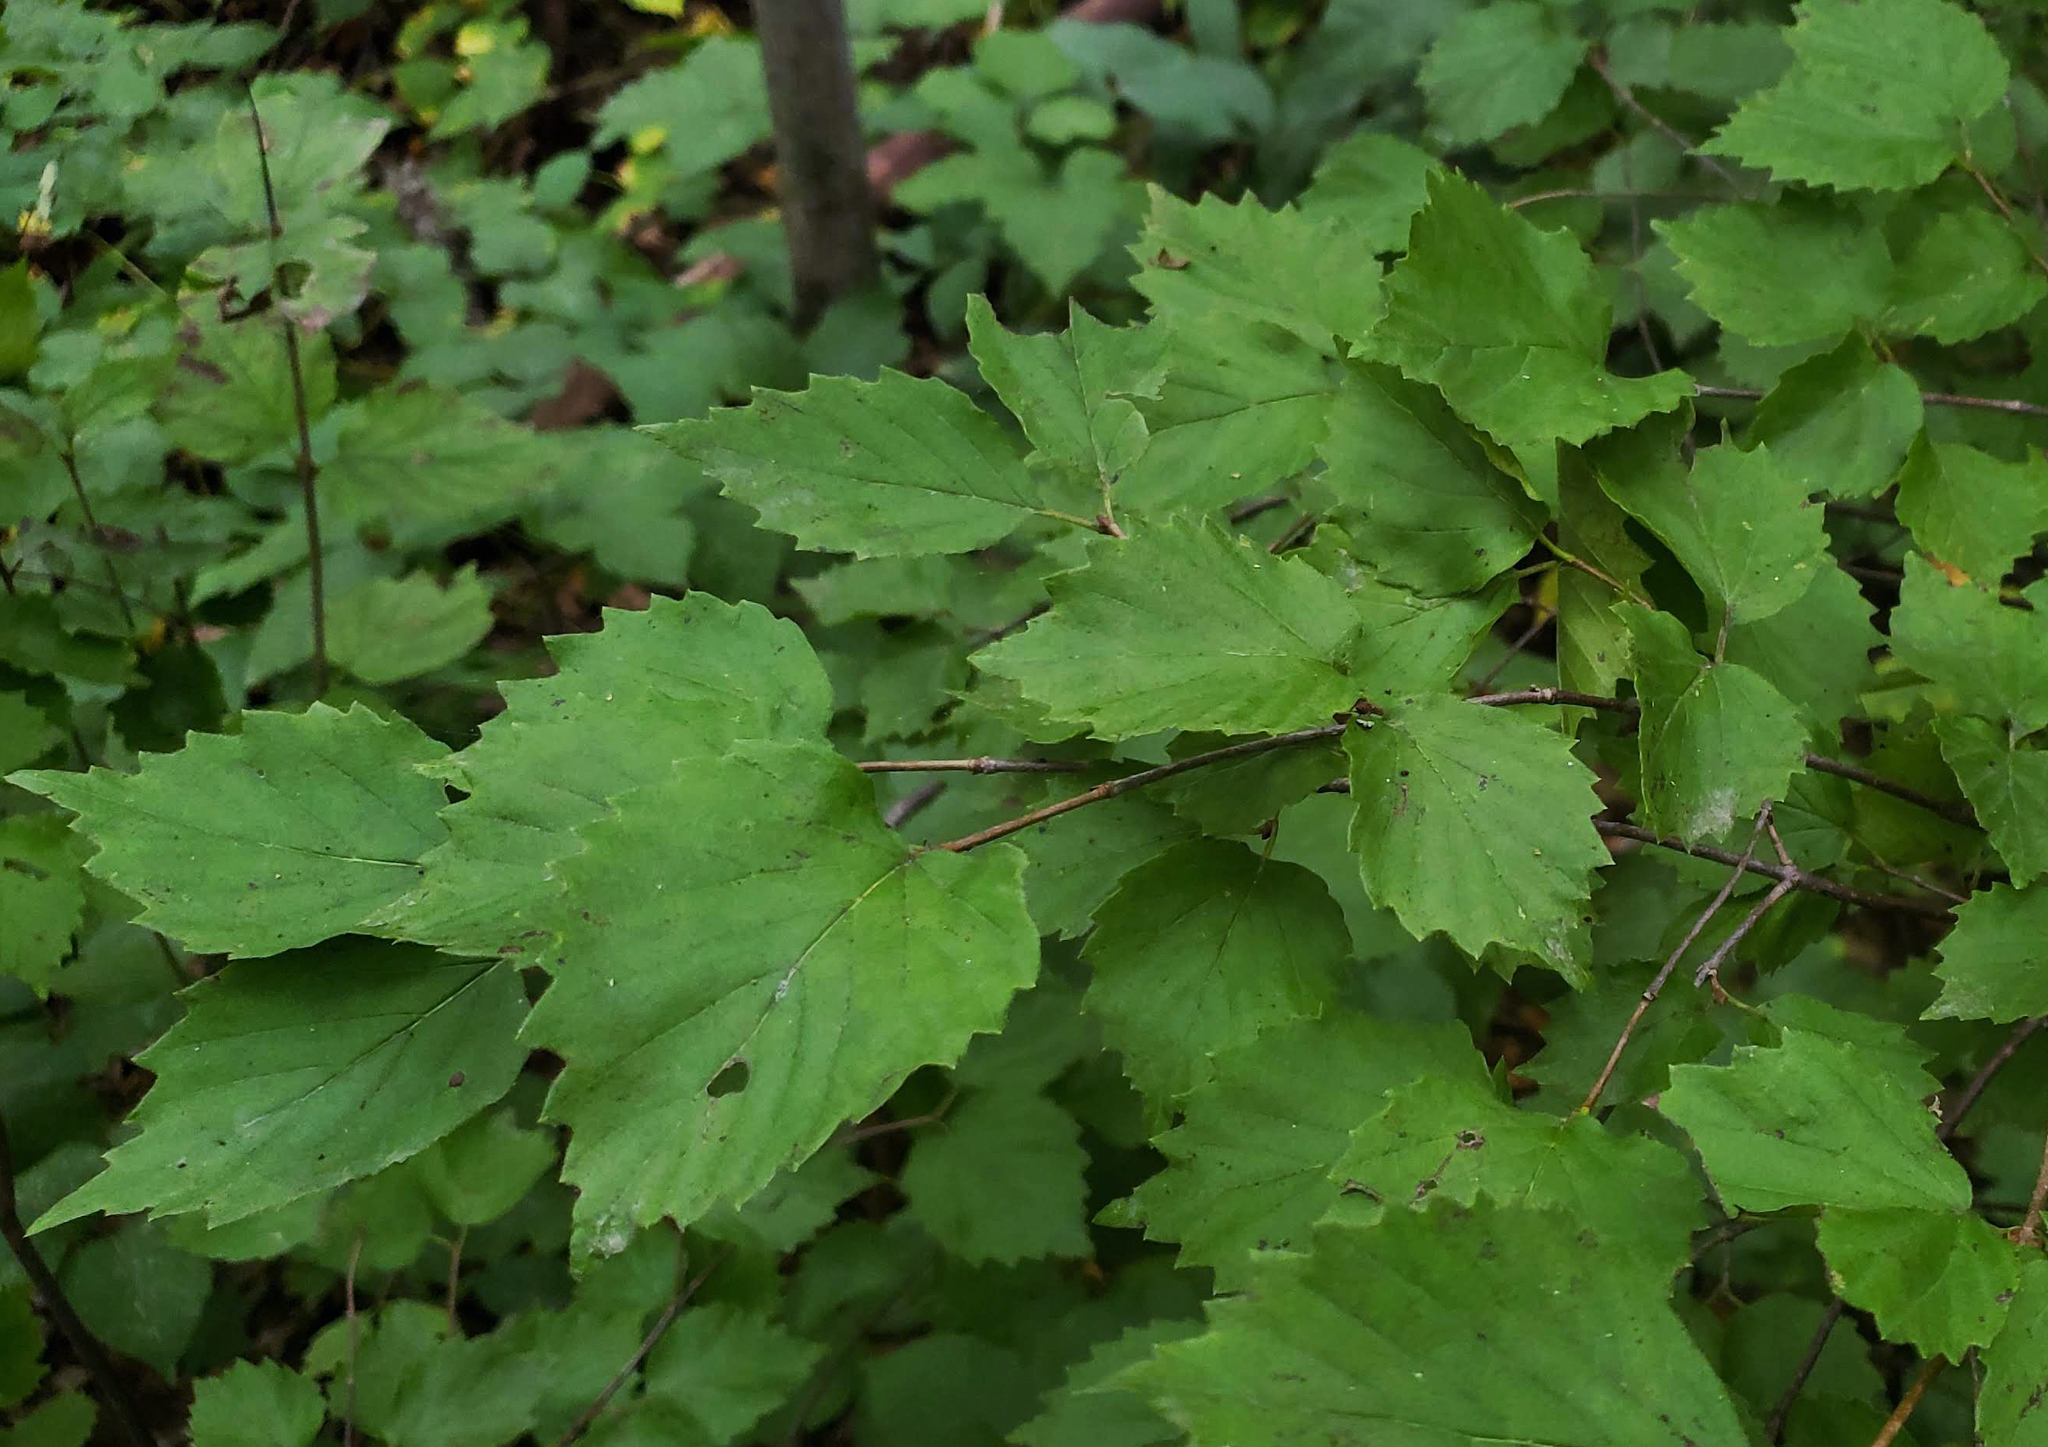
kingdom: Plantae
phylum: Tracheophyta
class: Magnoliopsida
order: Dipsacales
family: Viburnaceae
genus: Viburnum
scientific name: Viburnum rafinesqueanum
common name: Downy arrow-wood
